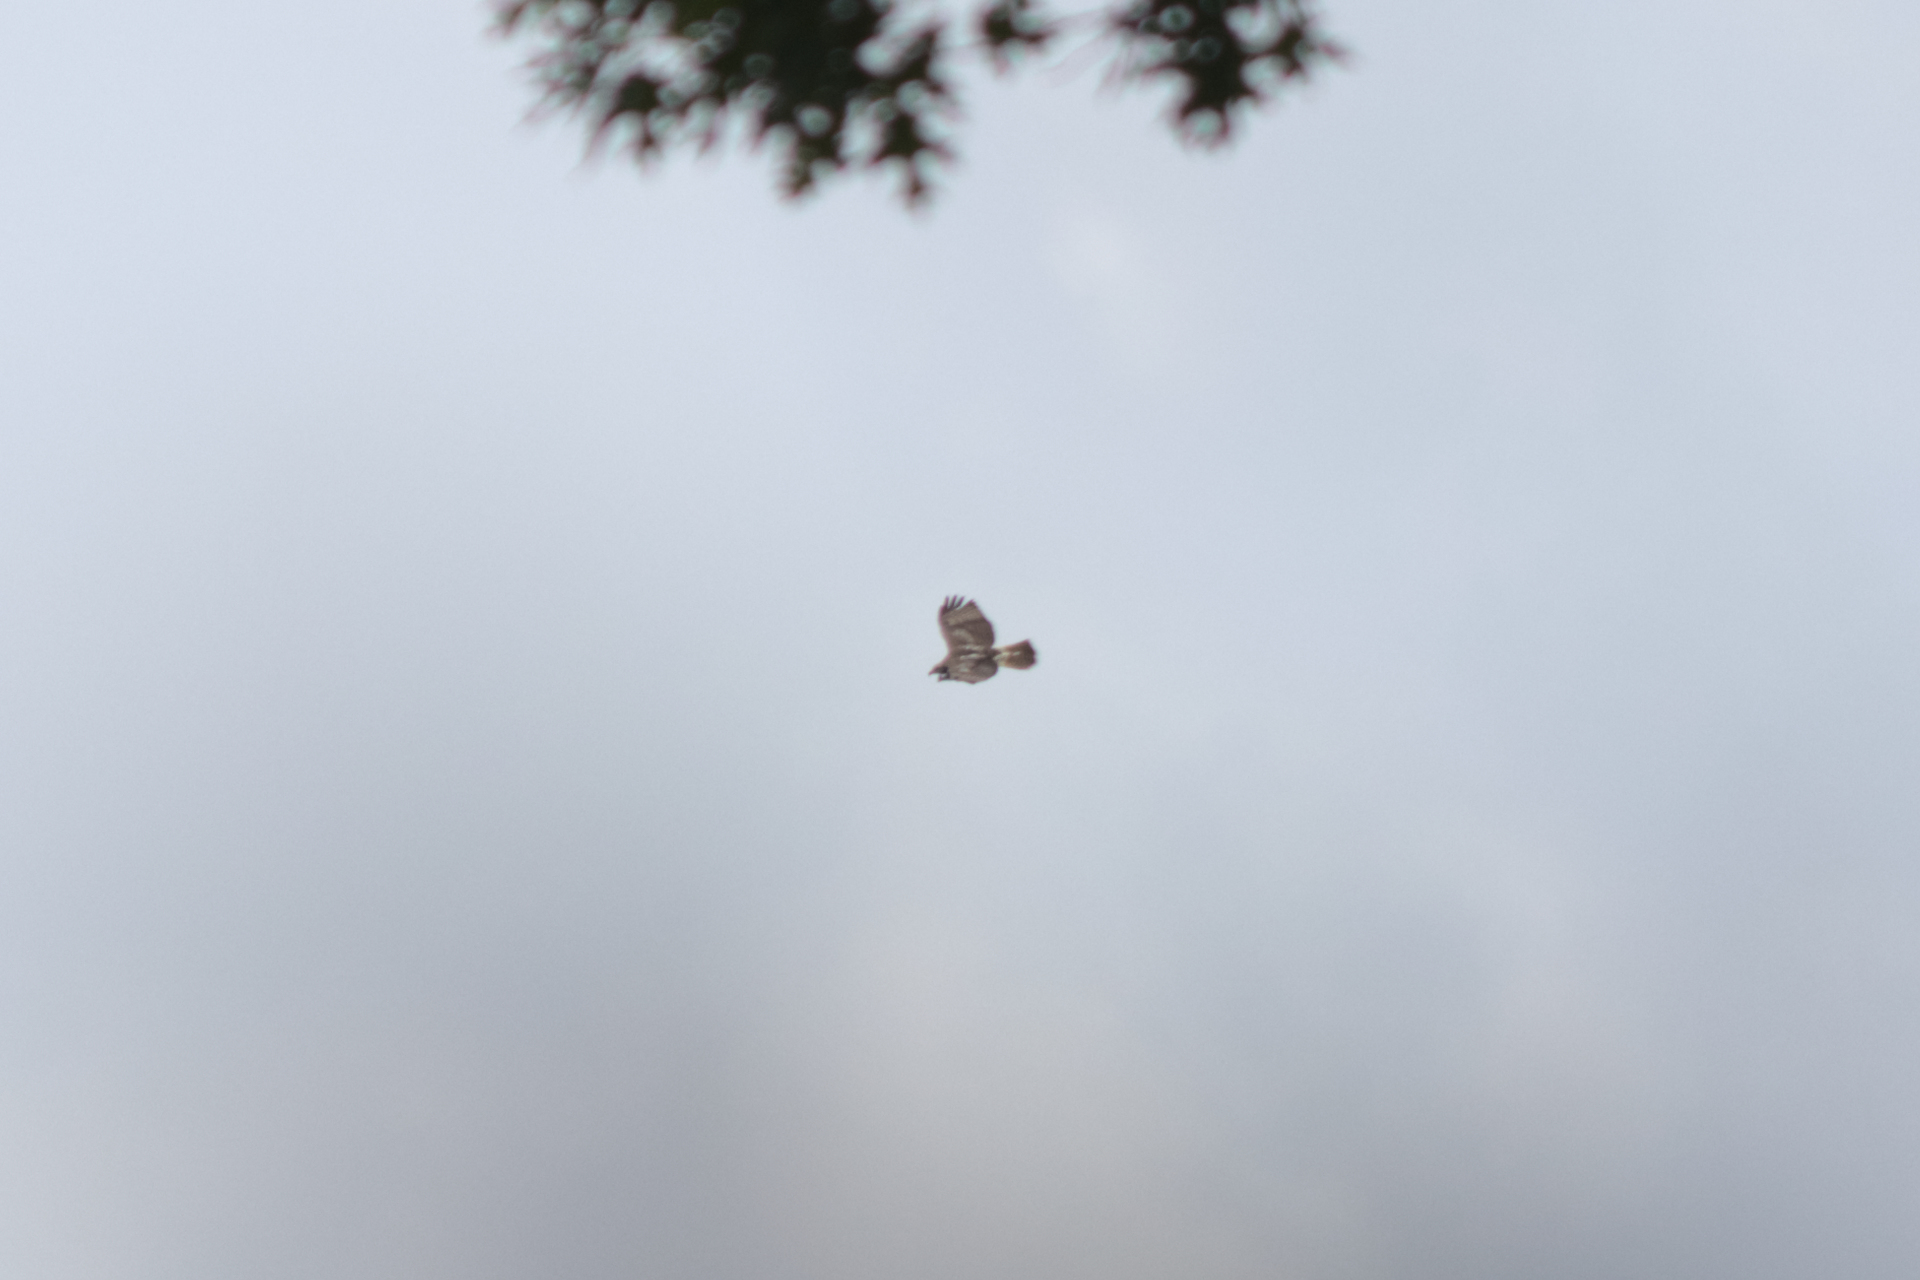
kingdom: Animalia
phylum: Chordata
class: Aves
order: Accipitriformes
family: Accipitridae
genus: Buteo
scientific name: Buteo jamaicensis
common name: Red-tailed hawk
